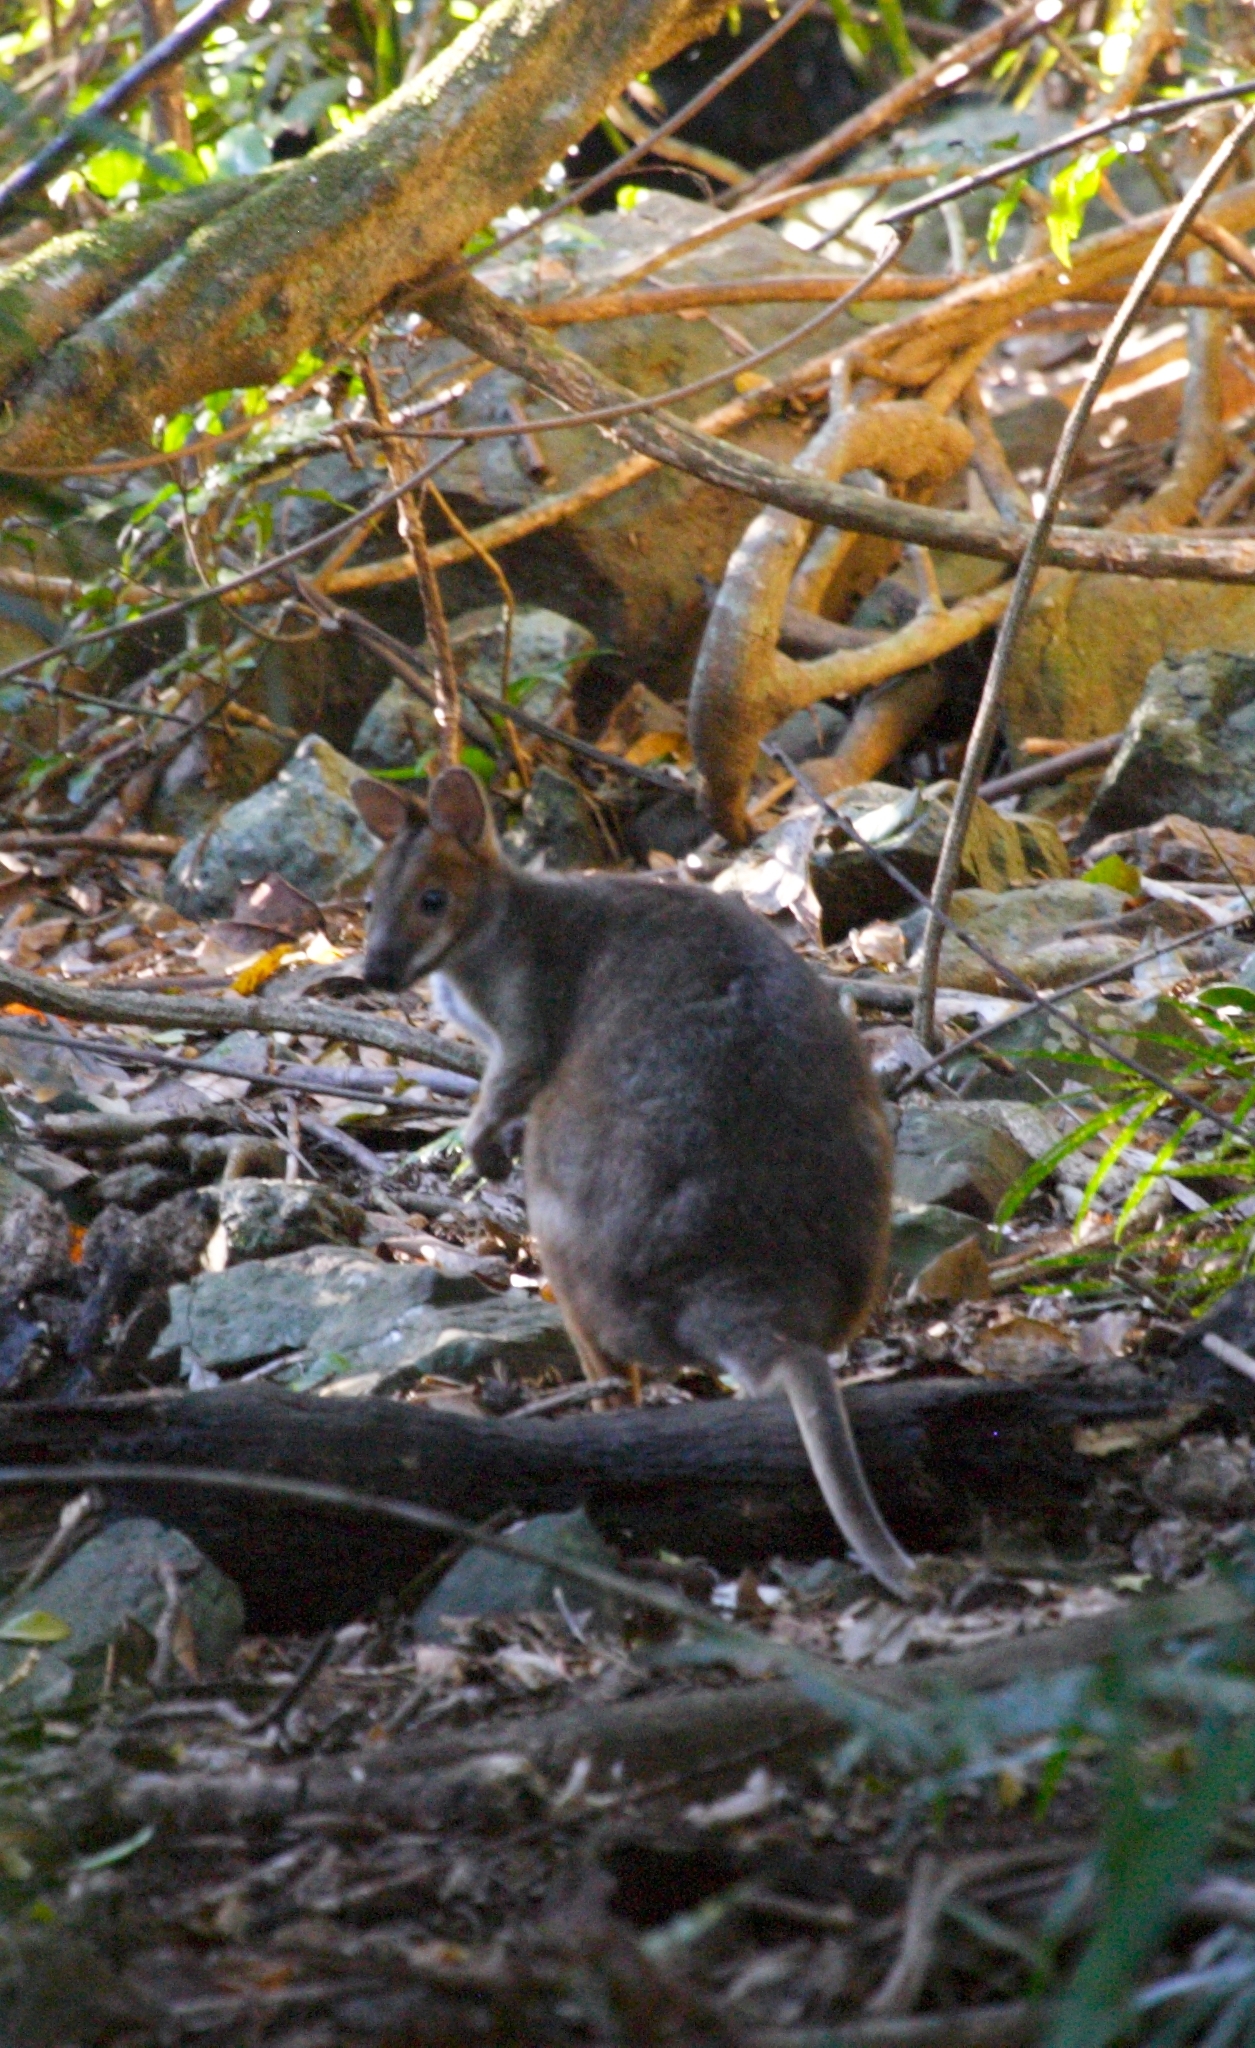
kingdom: Animalia
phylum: Chordata
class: Mammalia
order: Diprotodontia
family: Macropodidae
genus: Thylogale
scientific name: Thylogale stigmatica
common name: Red-legged pademelon
